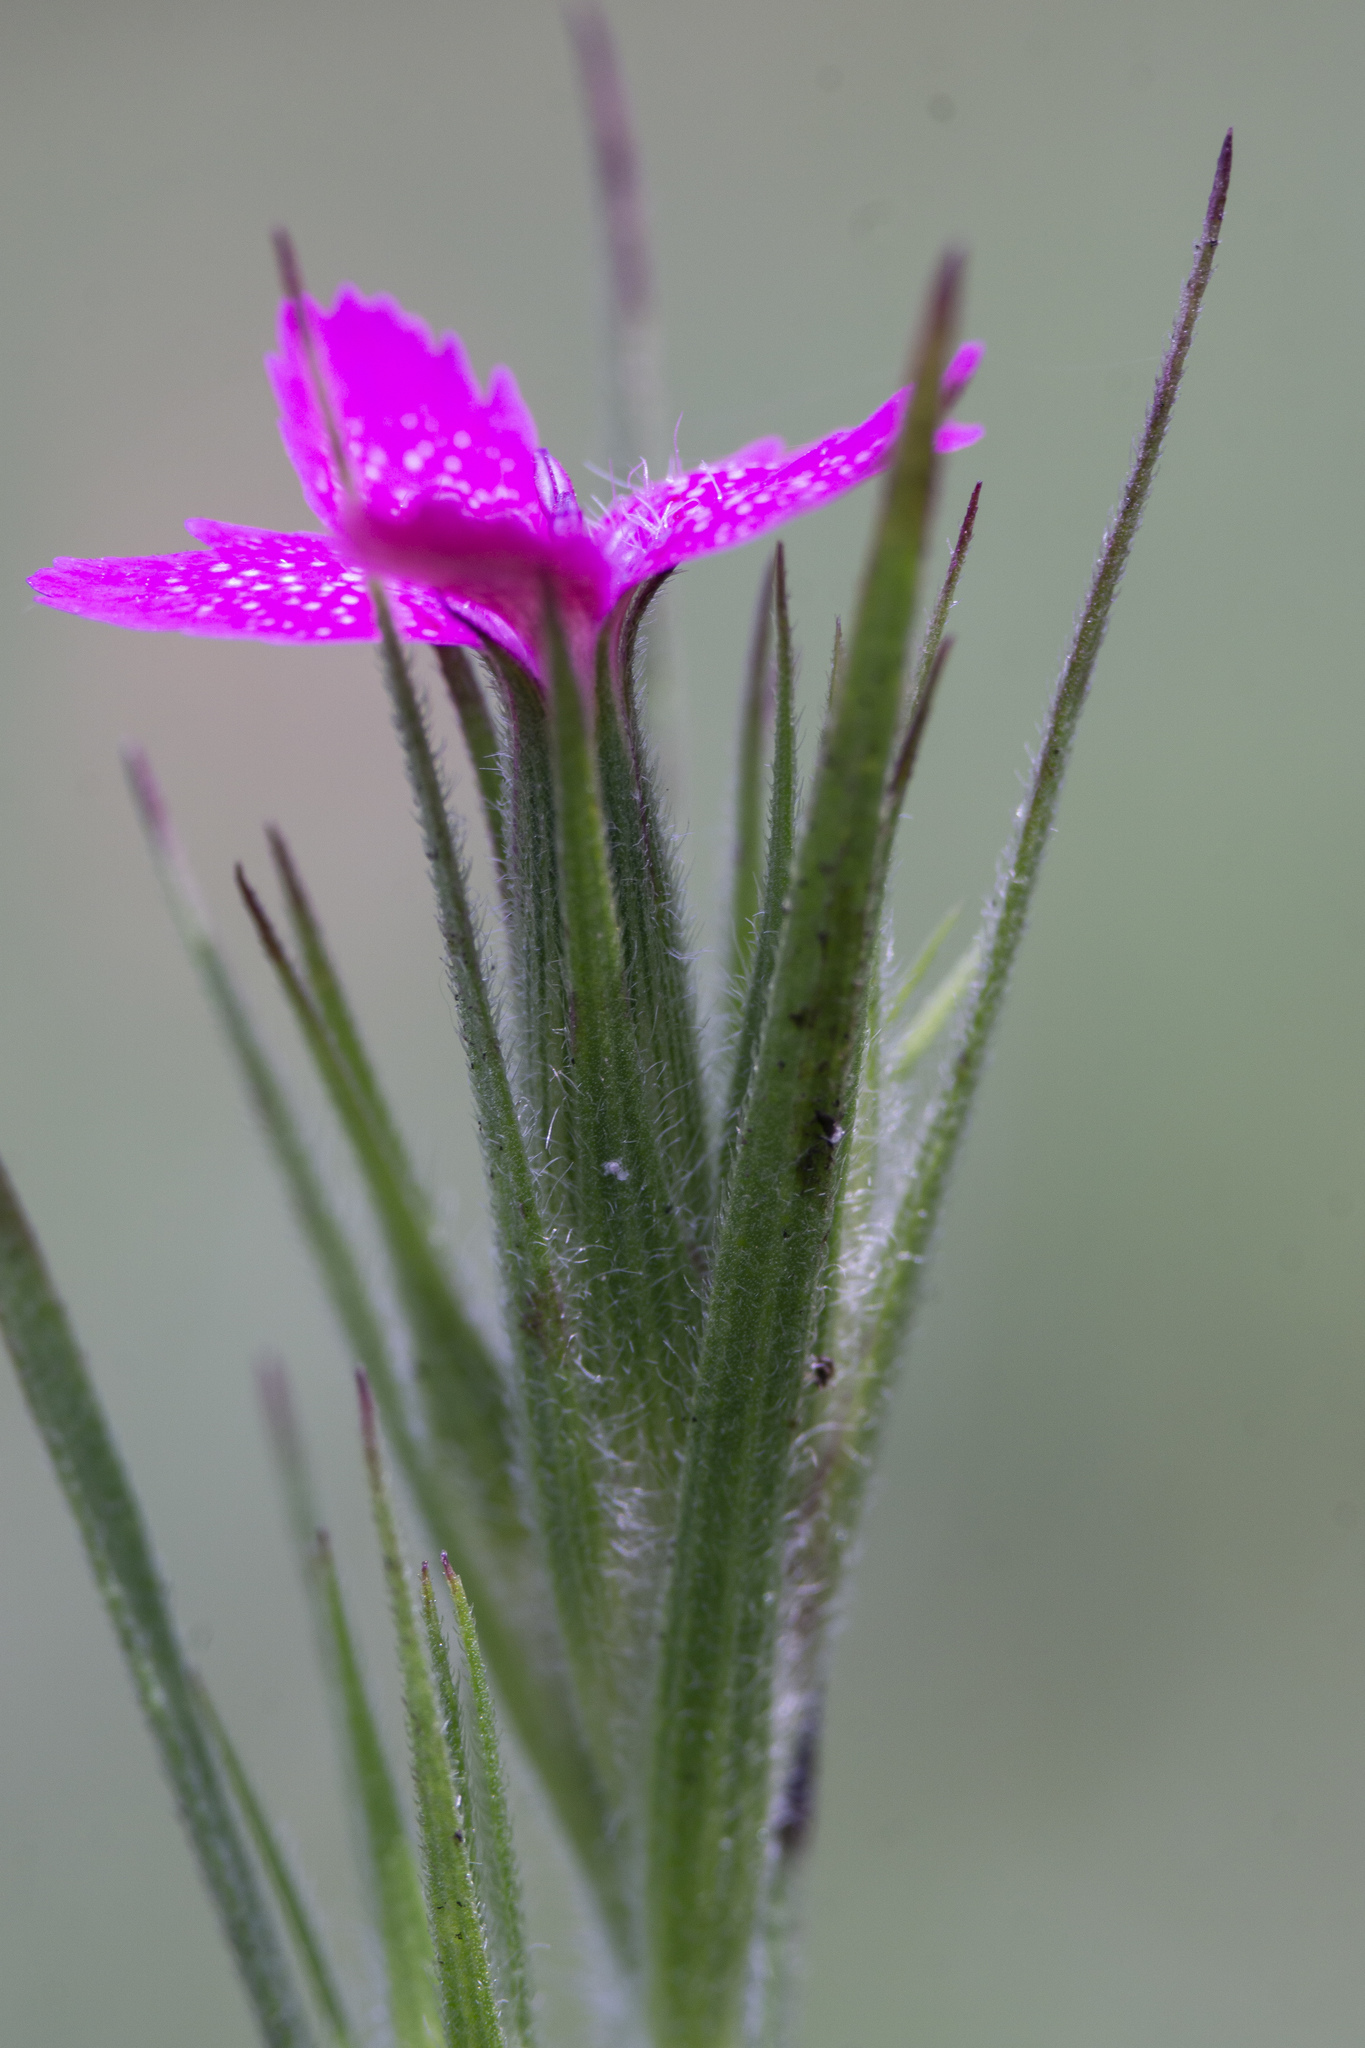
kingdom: Plantae
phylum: Tracheophyta
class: Magnoliopsida
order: Caryophyllales
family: Caryophyllaceae
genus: Dianthus
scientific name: Dianthus armeria
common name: Deptford pink
